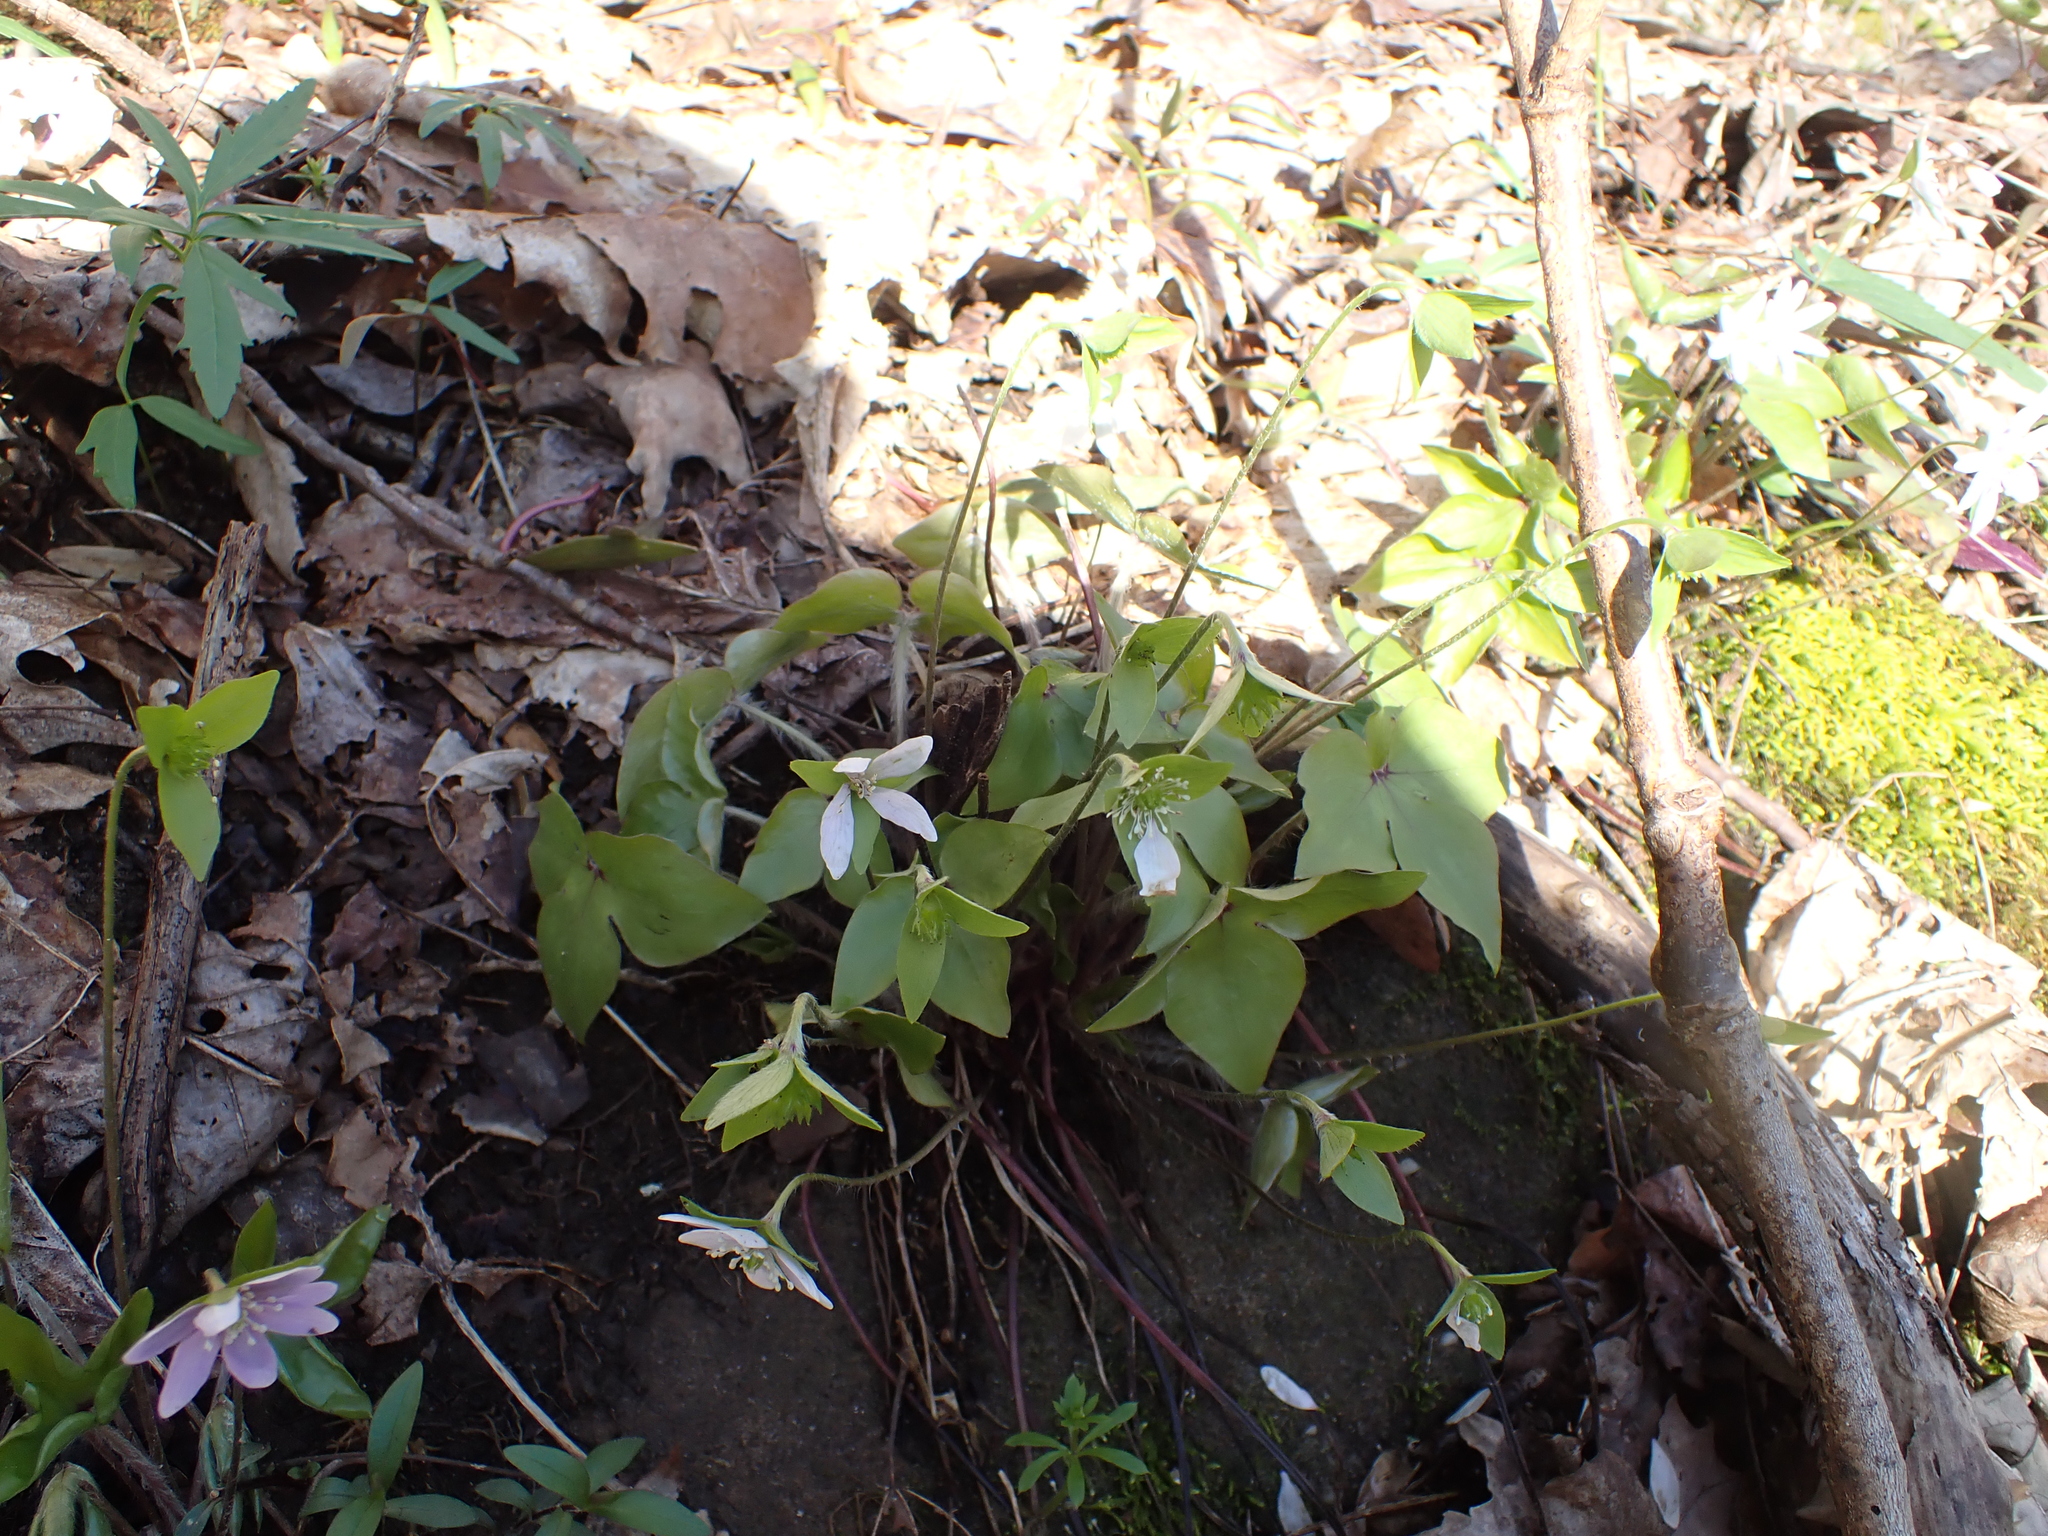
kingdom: Plantae
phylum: Tracheophyta
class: Magnoliopsida
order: Ranunculales
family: Ranunculaceae
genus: Hepatica
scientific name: Hepatica acutiloba
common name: Sharp-lobed hepatica
